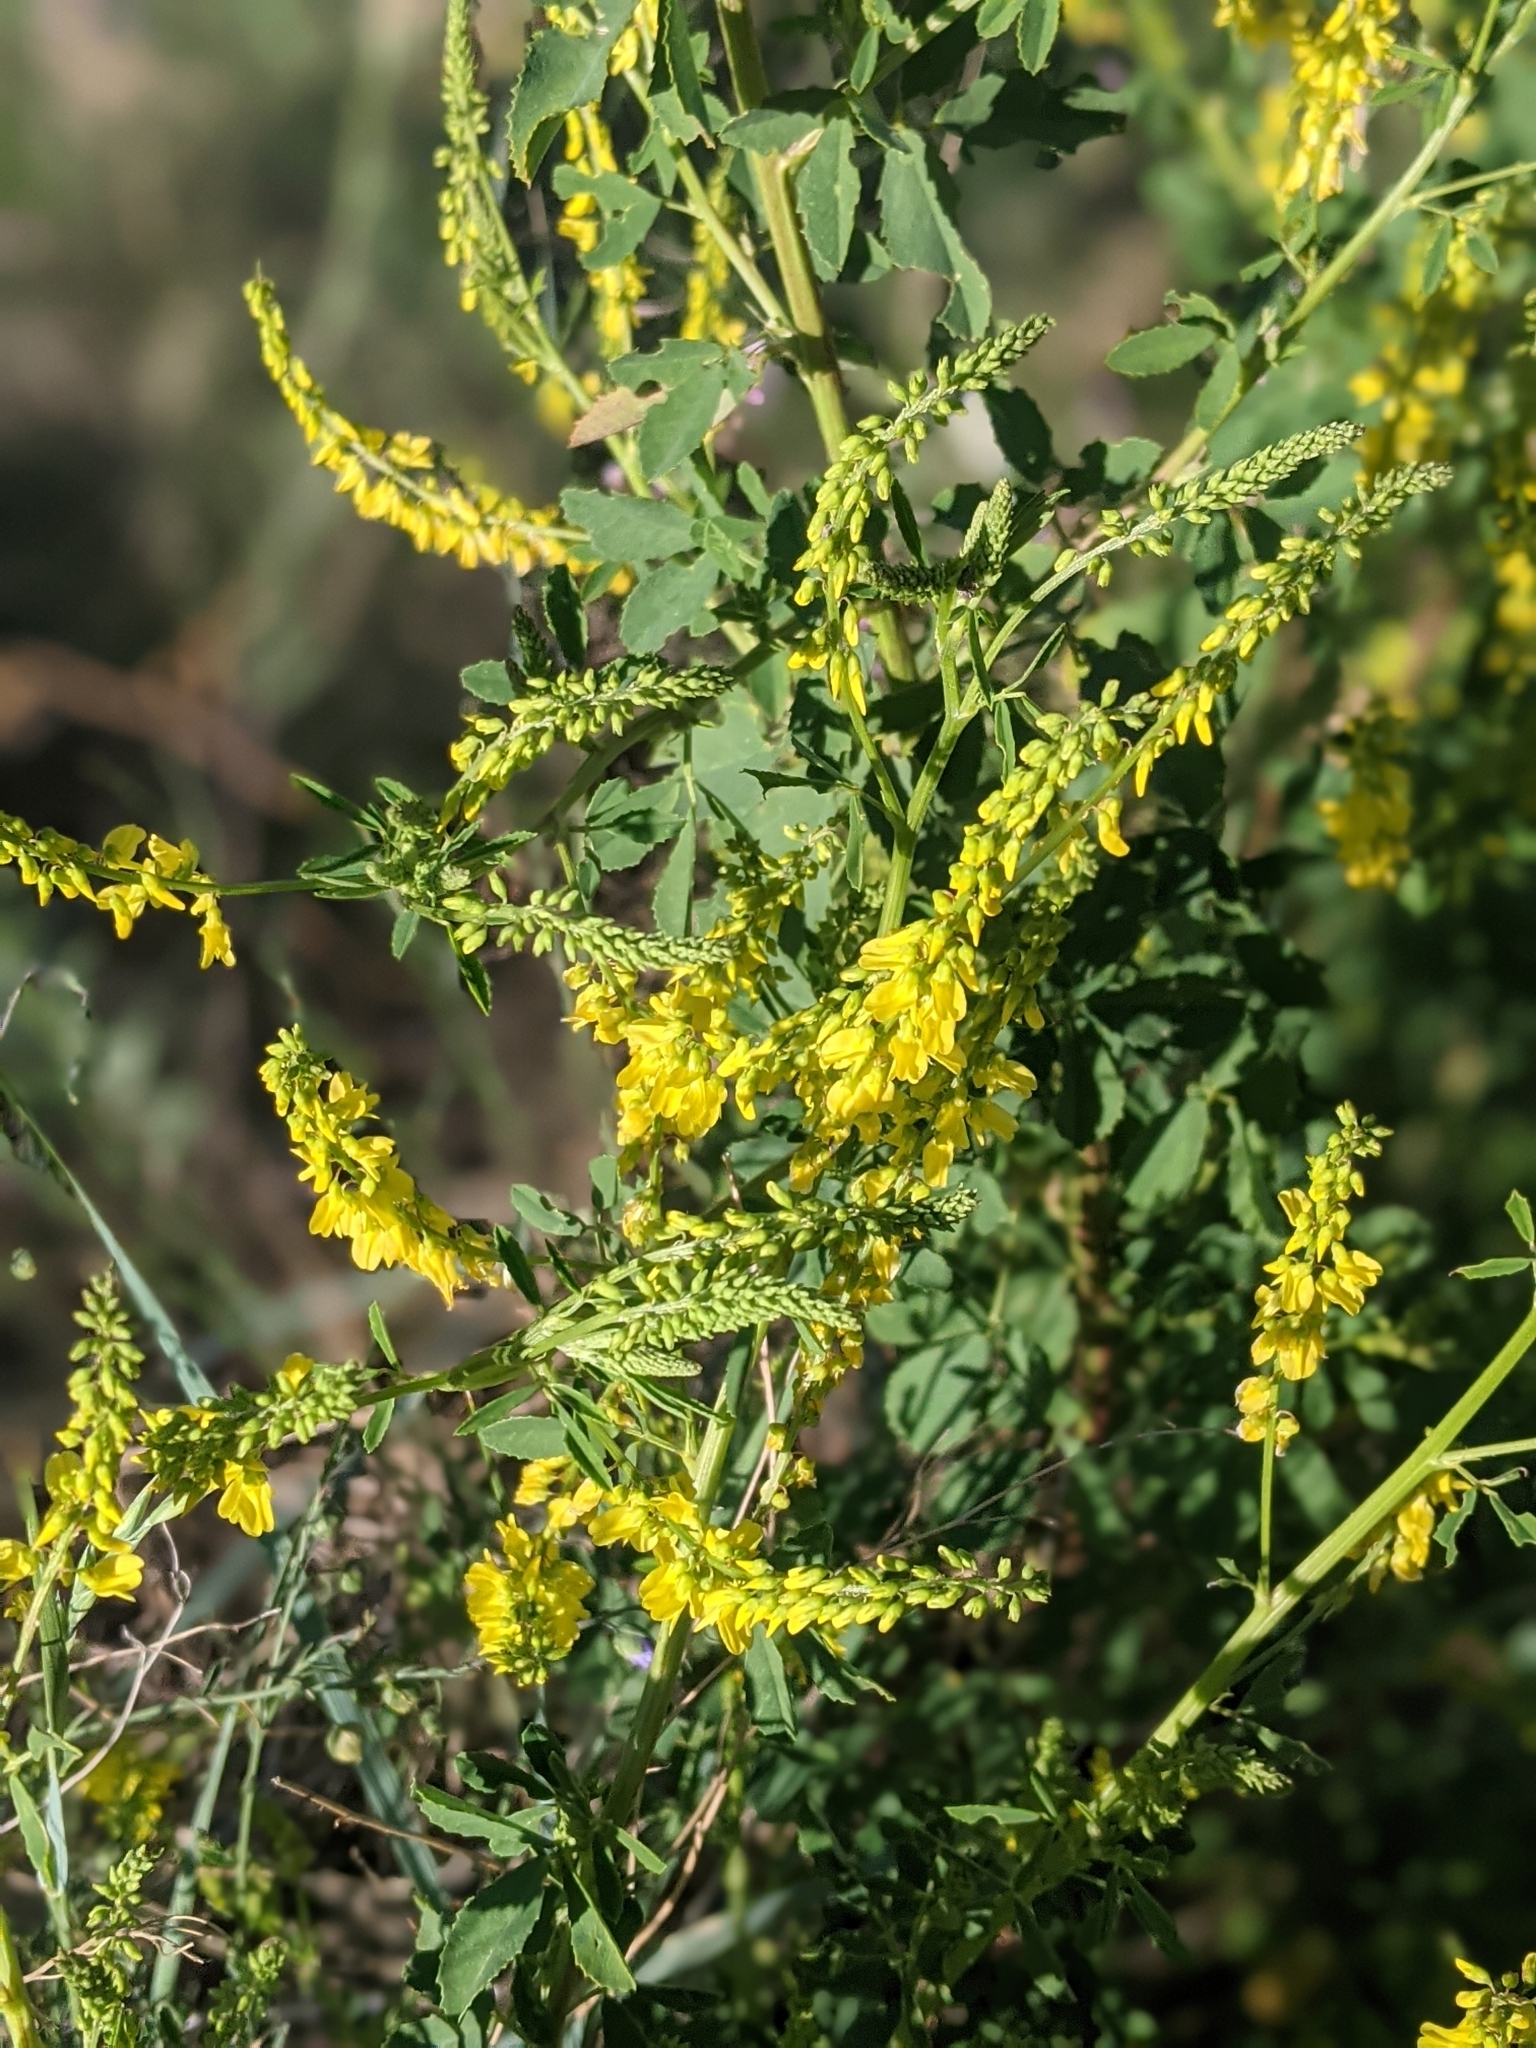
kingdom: Plantae
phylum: Tracheophyta
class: Magnoliopsida
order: Fabales
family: Fabaceae
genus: Melilotus
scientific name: Melilotus officinalis
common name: Sweetclover
